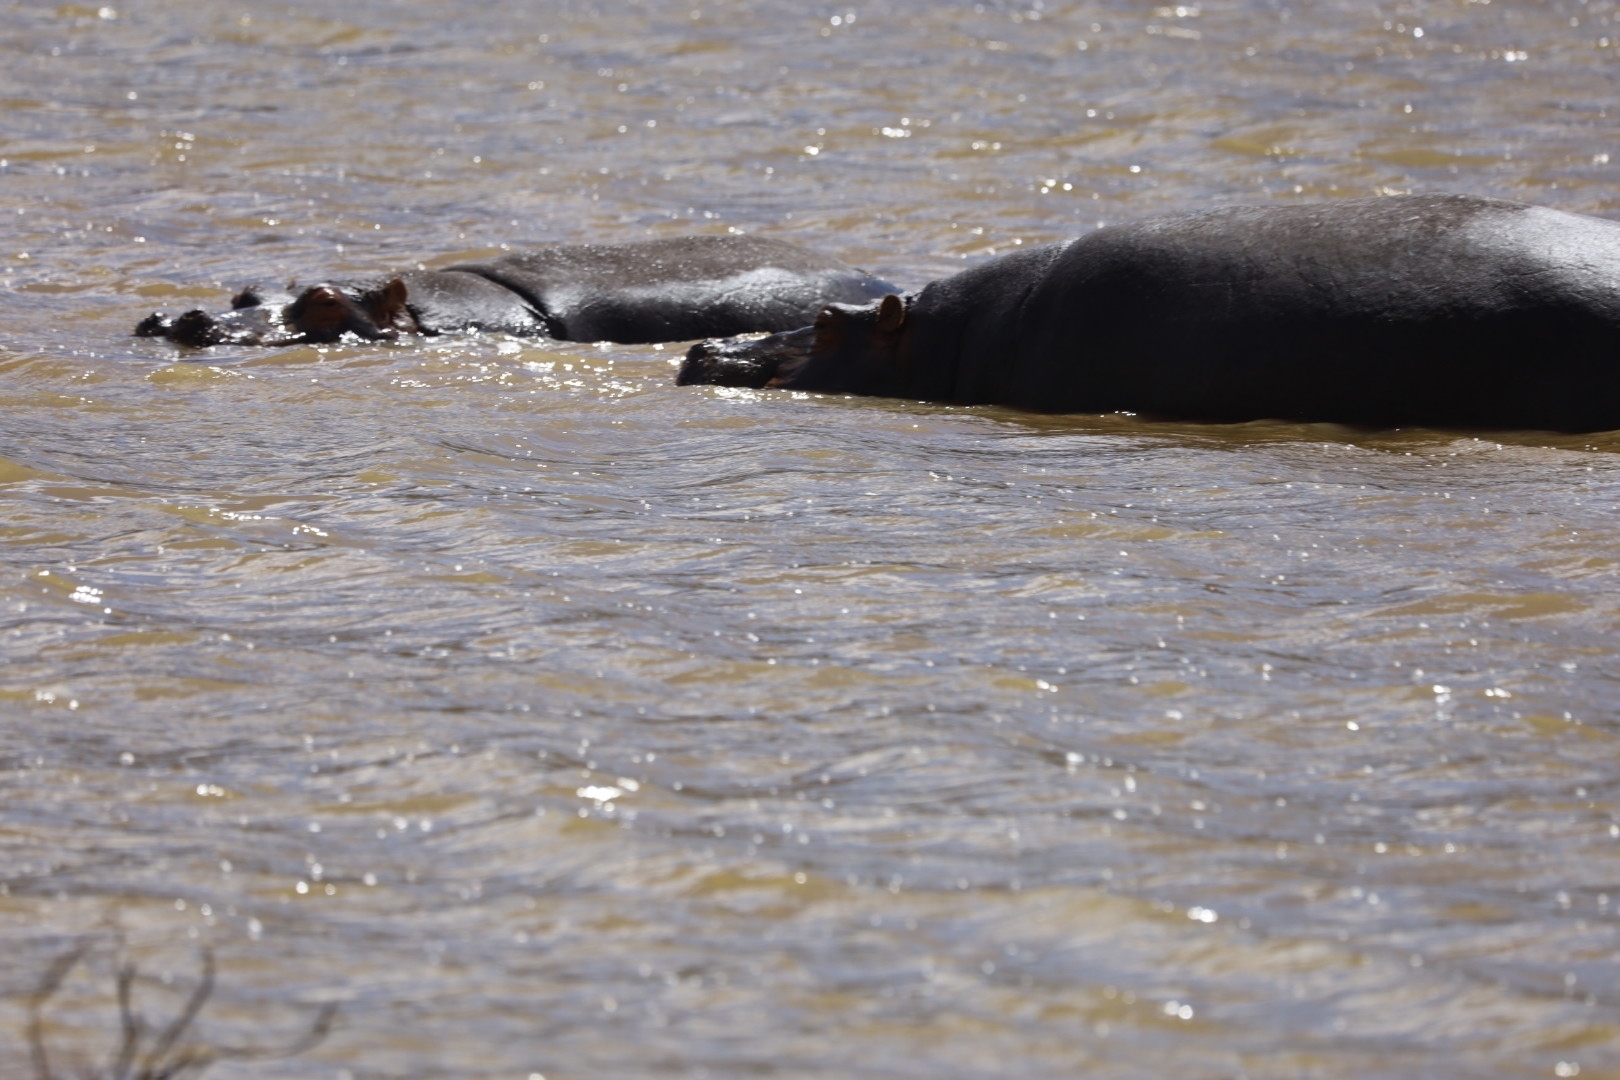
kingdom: Animalia
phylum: Chordata
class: Mammalia
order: Artiodactyla
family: Hippopotamidae
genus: Hippopotamus
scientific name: Hippopotamus amphibius
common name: Common hippopotamus
